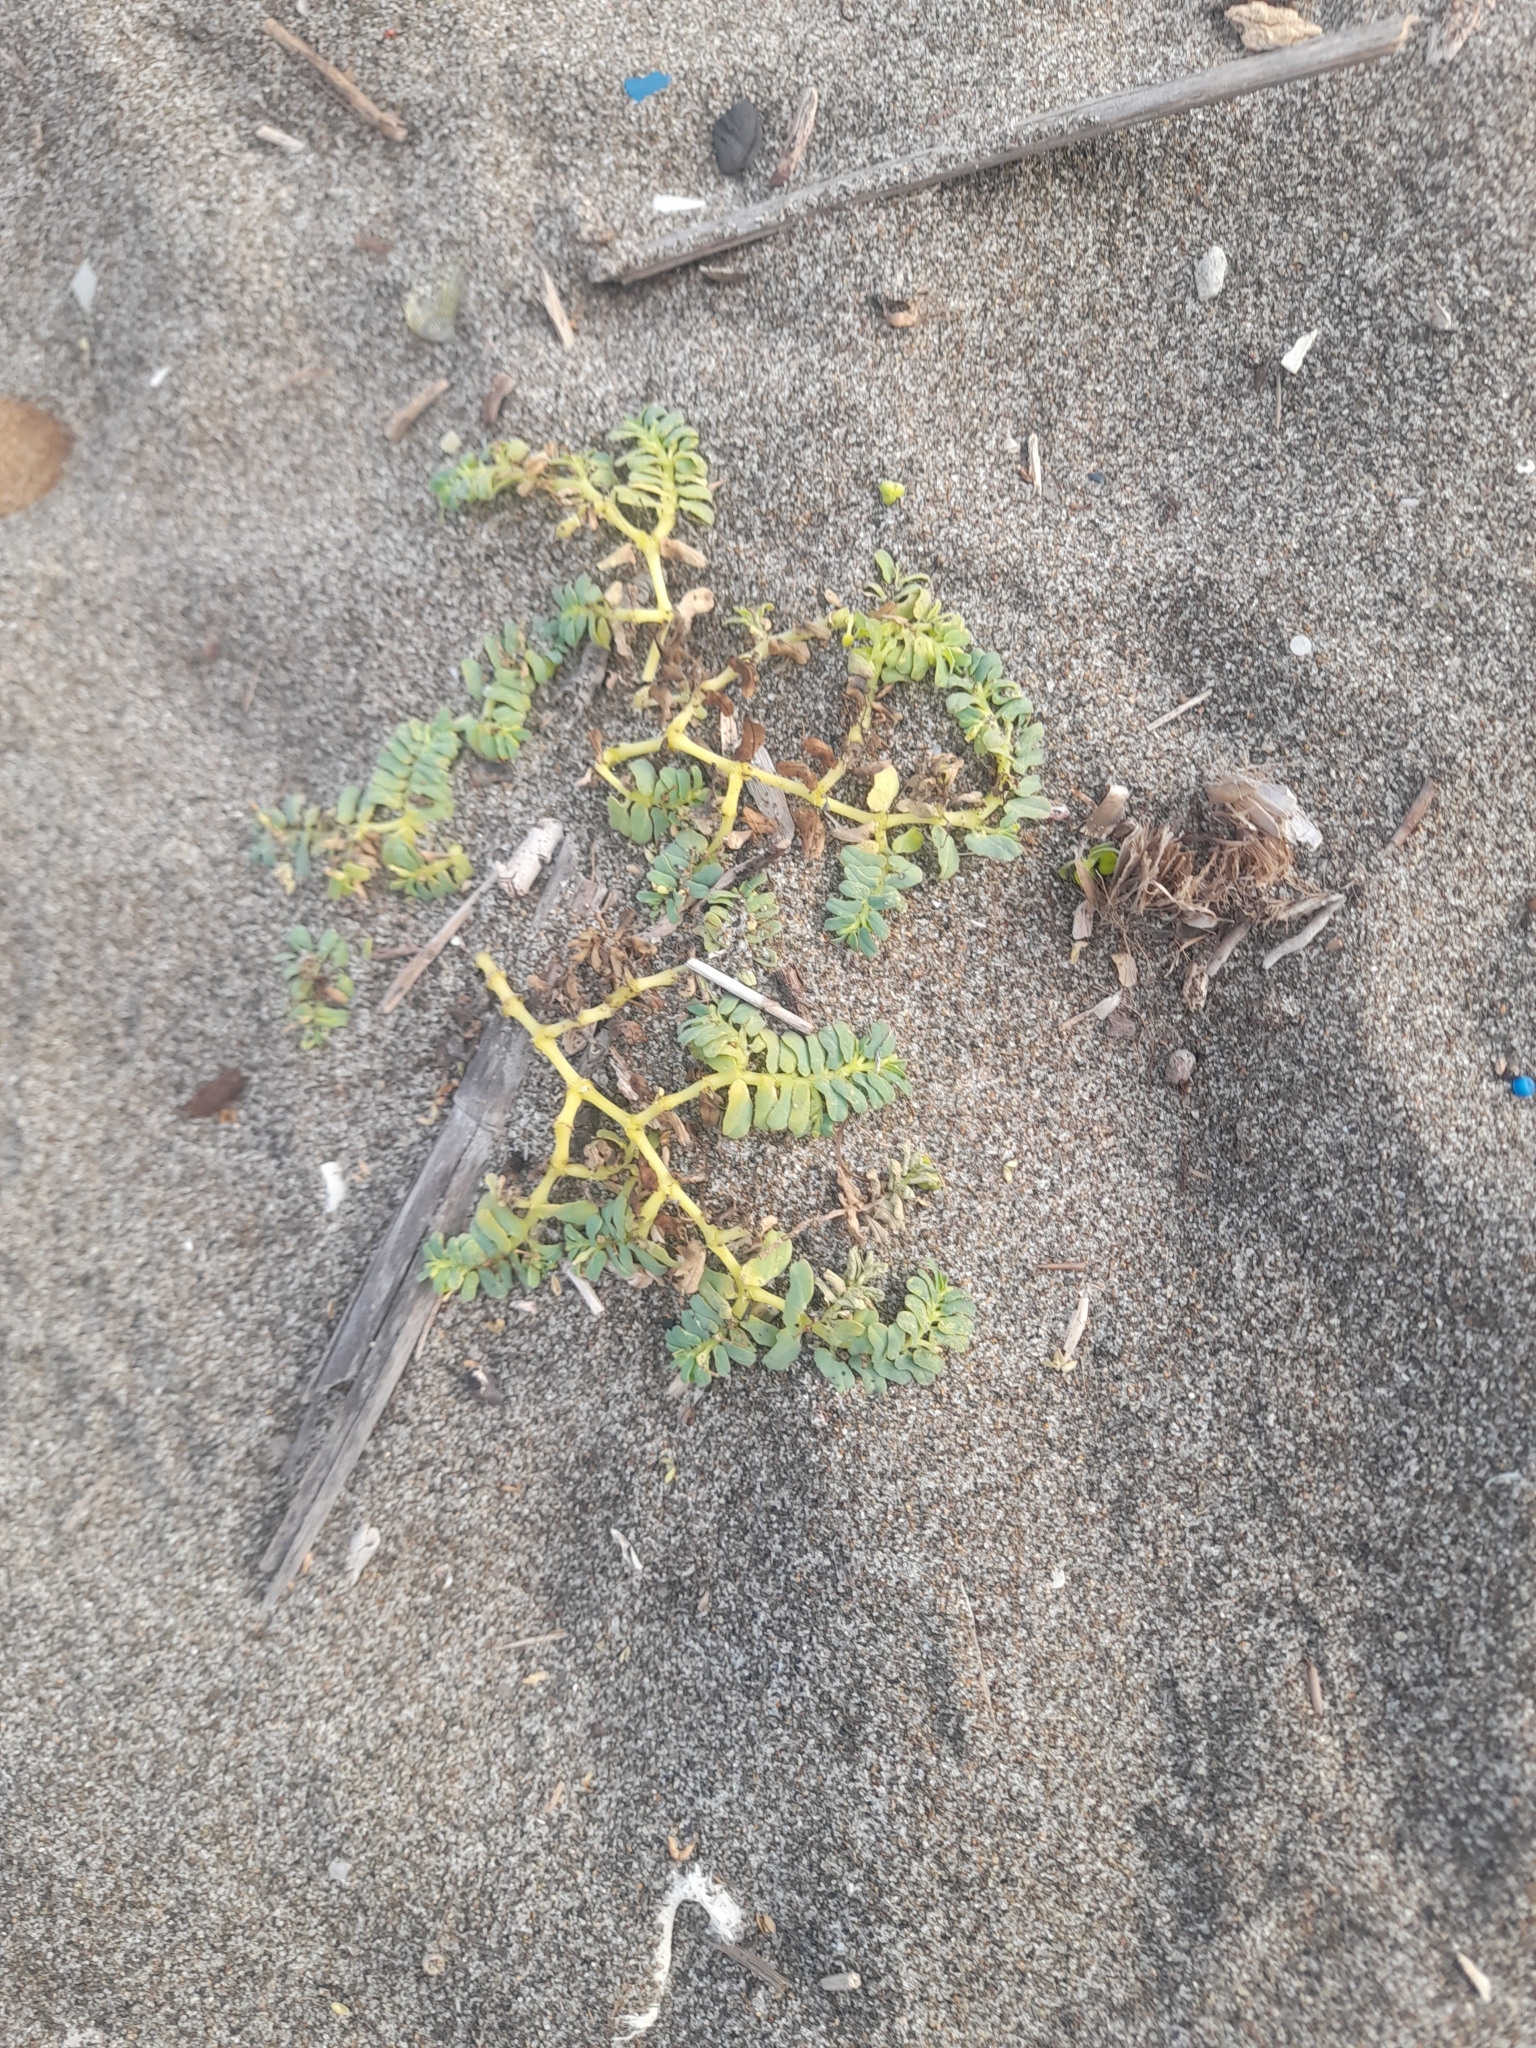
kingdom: Plantae
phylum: Tracheophyta
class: Magnoliopsida
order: Malpighiales
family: Euphorbiaceae
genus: Euphorbia
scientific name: Euphorbia peplis
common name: Purple spurge
